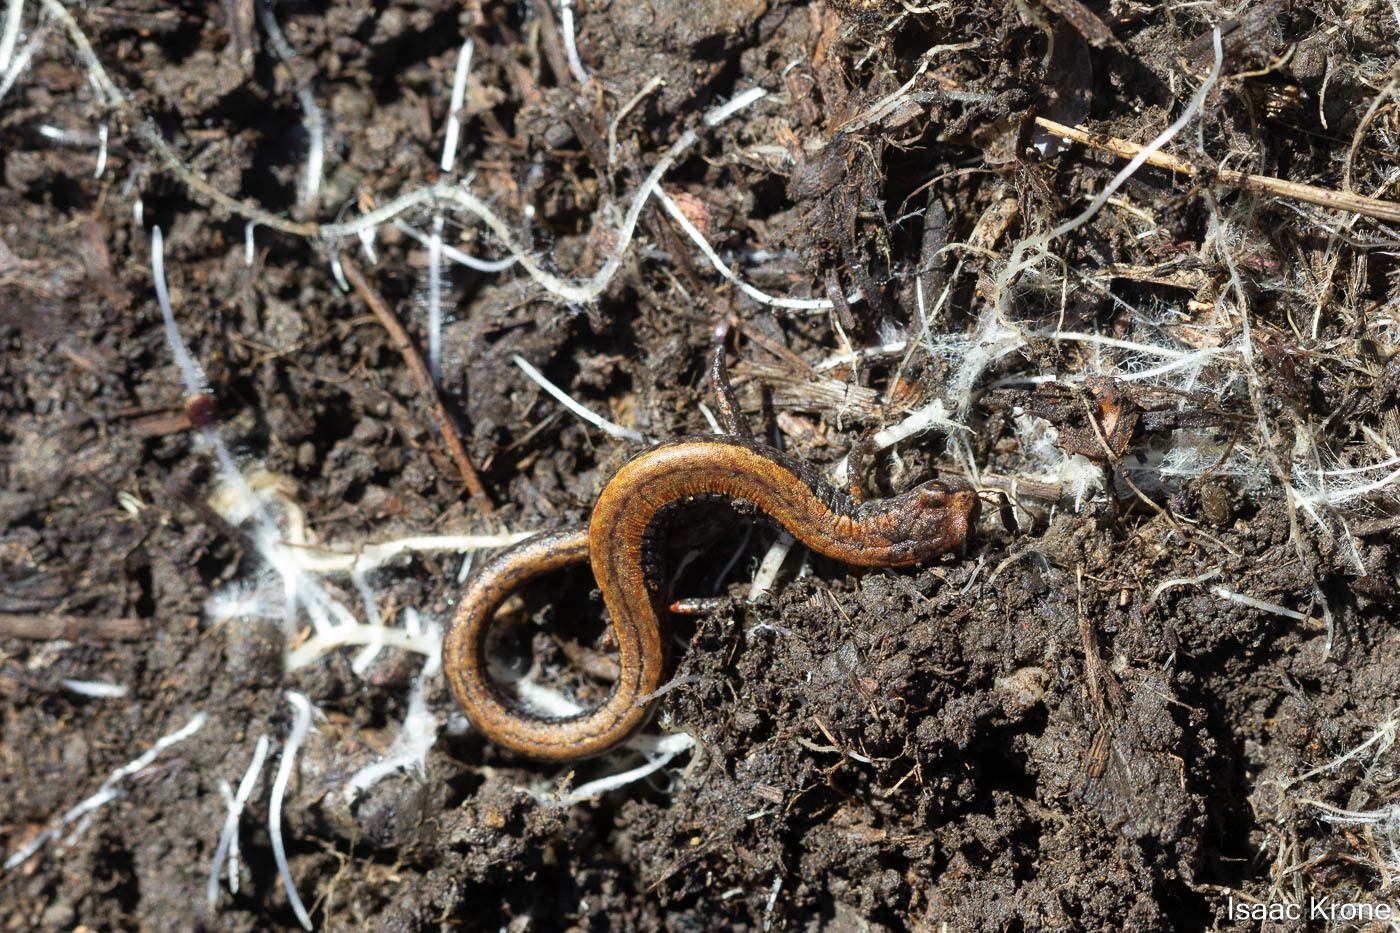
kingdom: Animalia
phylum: Chordata
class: Amphibia
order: Caudata
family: Plethodontidae
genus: Batrachoseps
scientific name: Batrachoseps attenuatus
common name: California slender salamander
